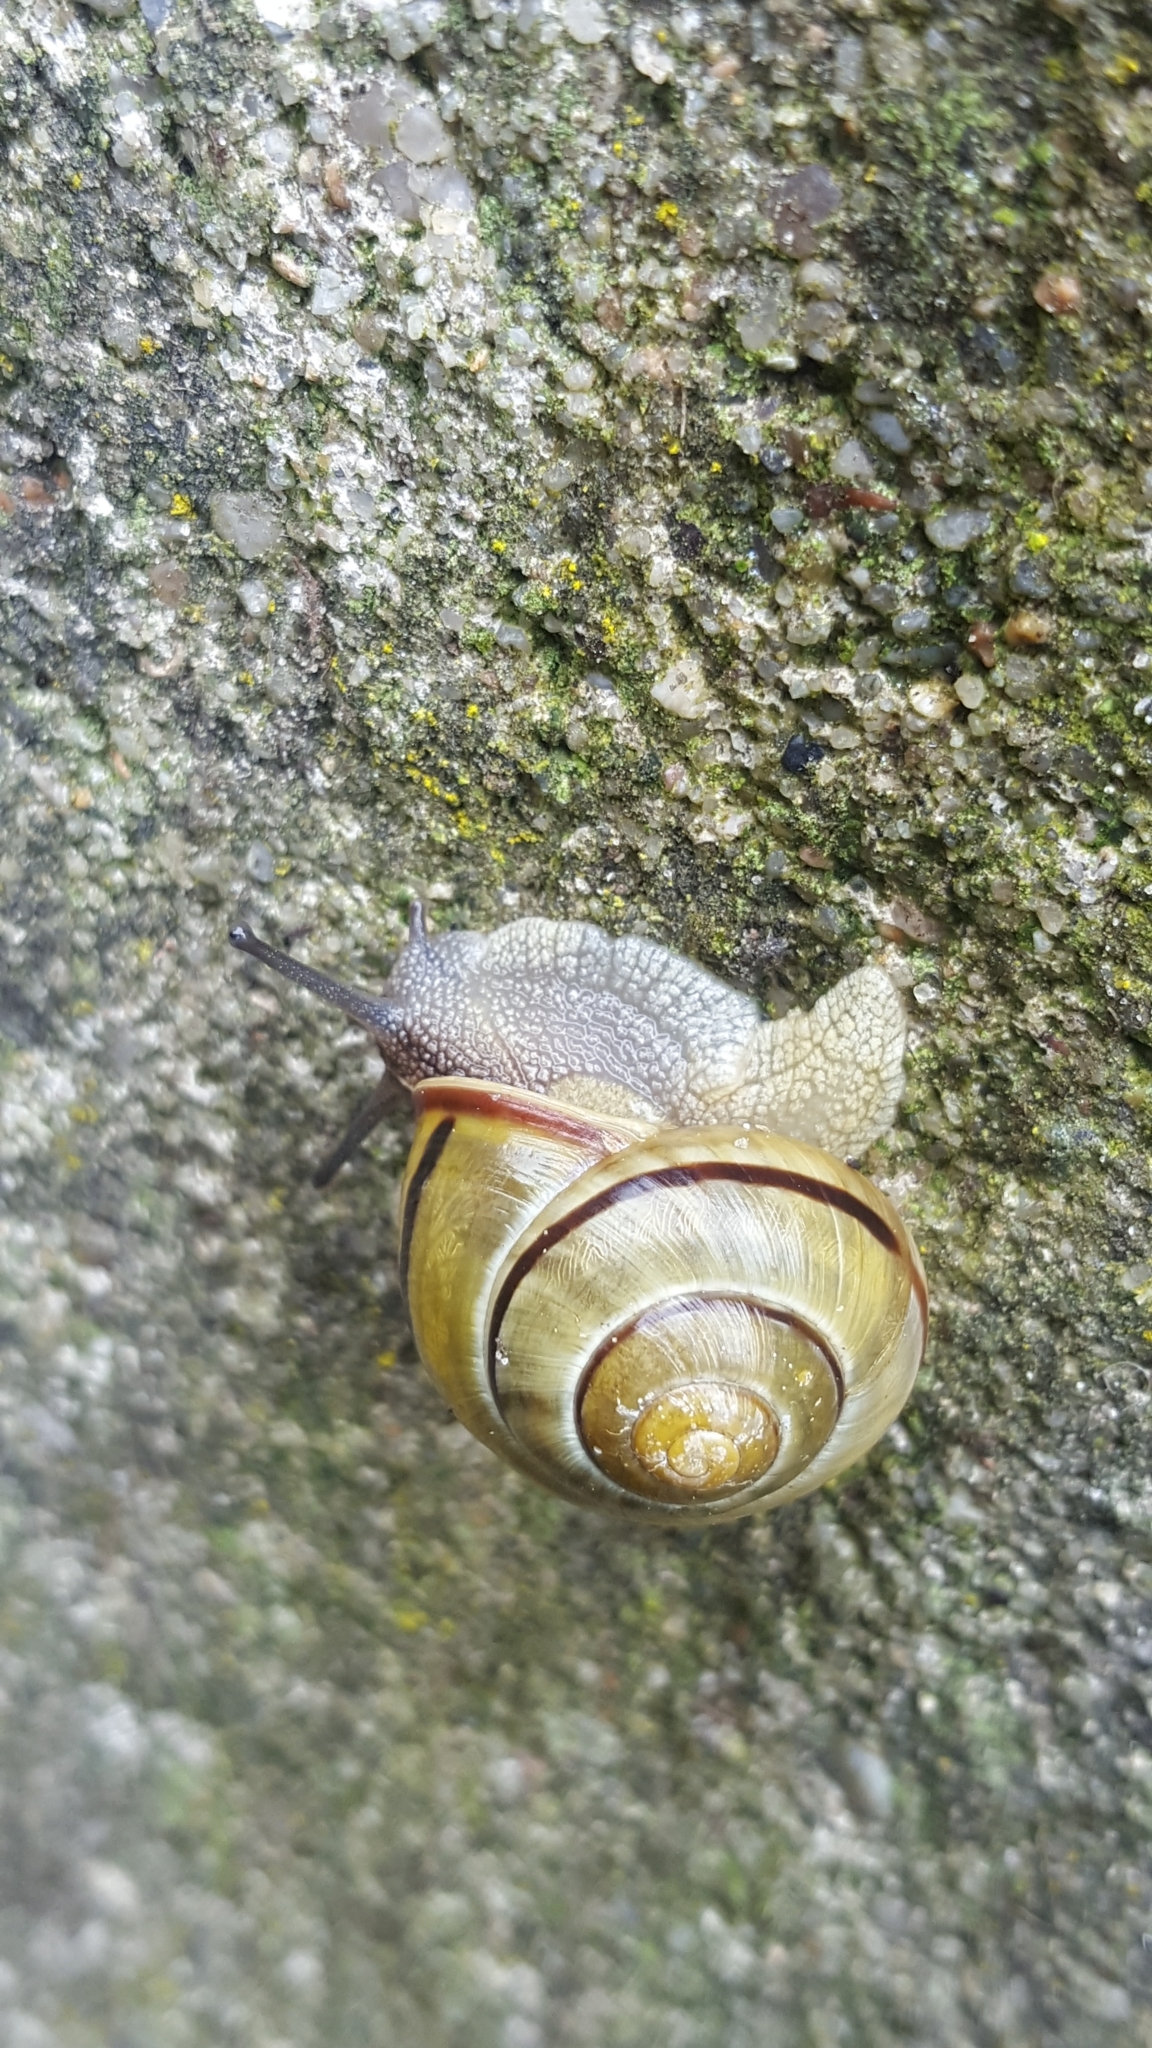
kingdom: Animalia
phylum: Mollusca
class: Gastropoda
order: Stylommatophora
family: Helicidae
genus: Cepaea
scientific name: Cepaea nemoralis
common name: Grovesnail
